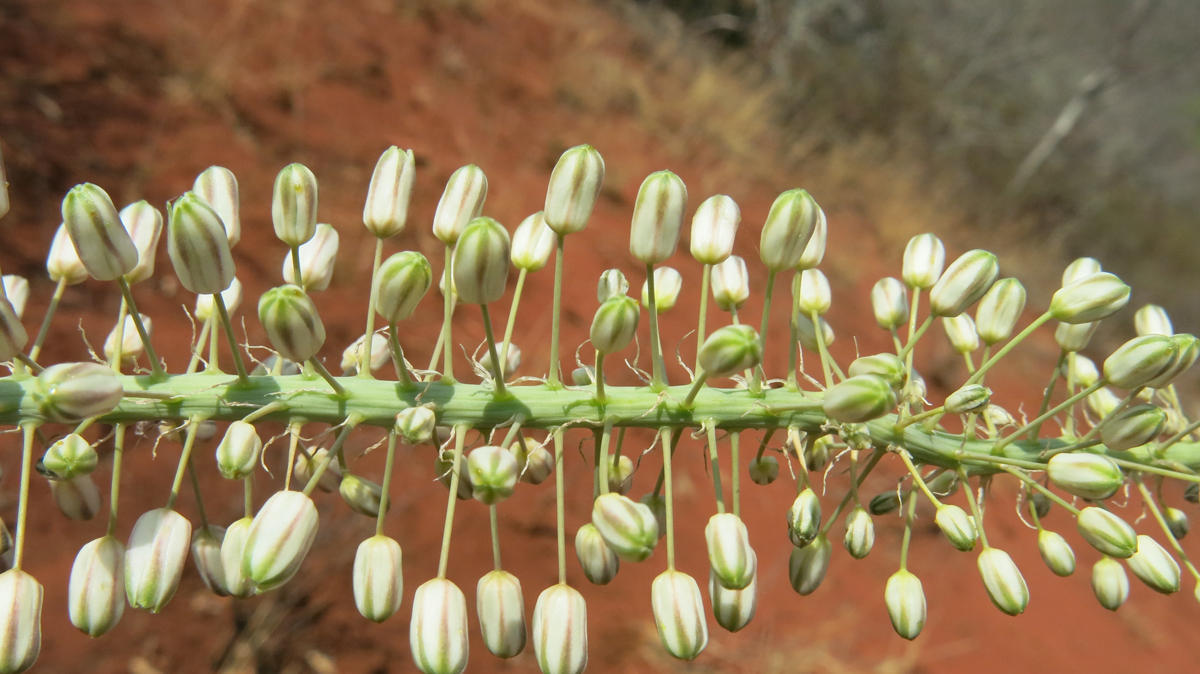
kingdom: Plantae
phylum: Tracheophyta
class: Liliopsida
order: Asparagales
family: Asparagaceae
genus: Drimia
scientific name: Drimia altissima
